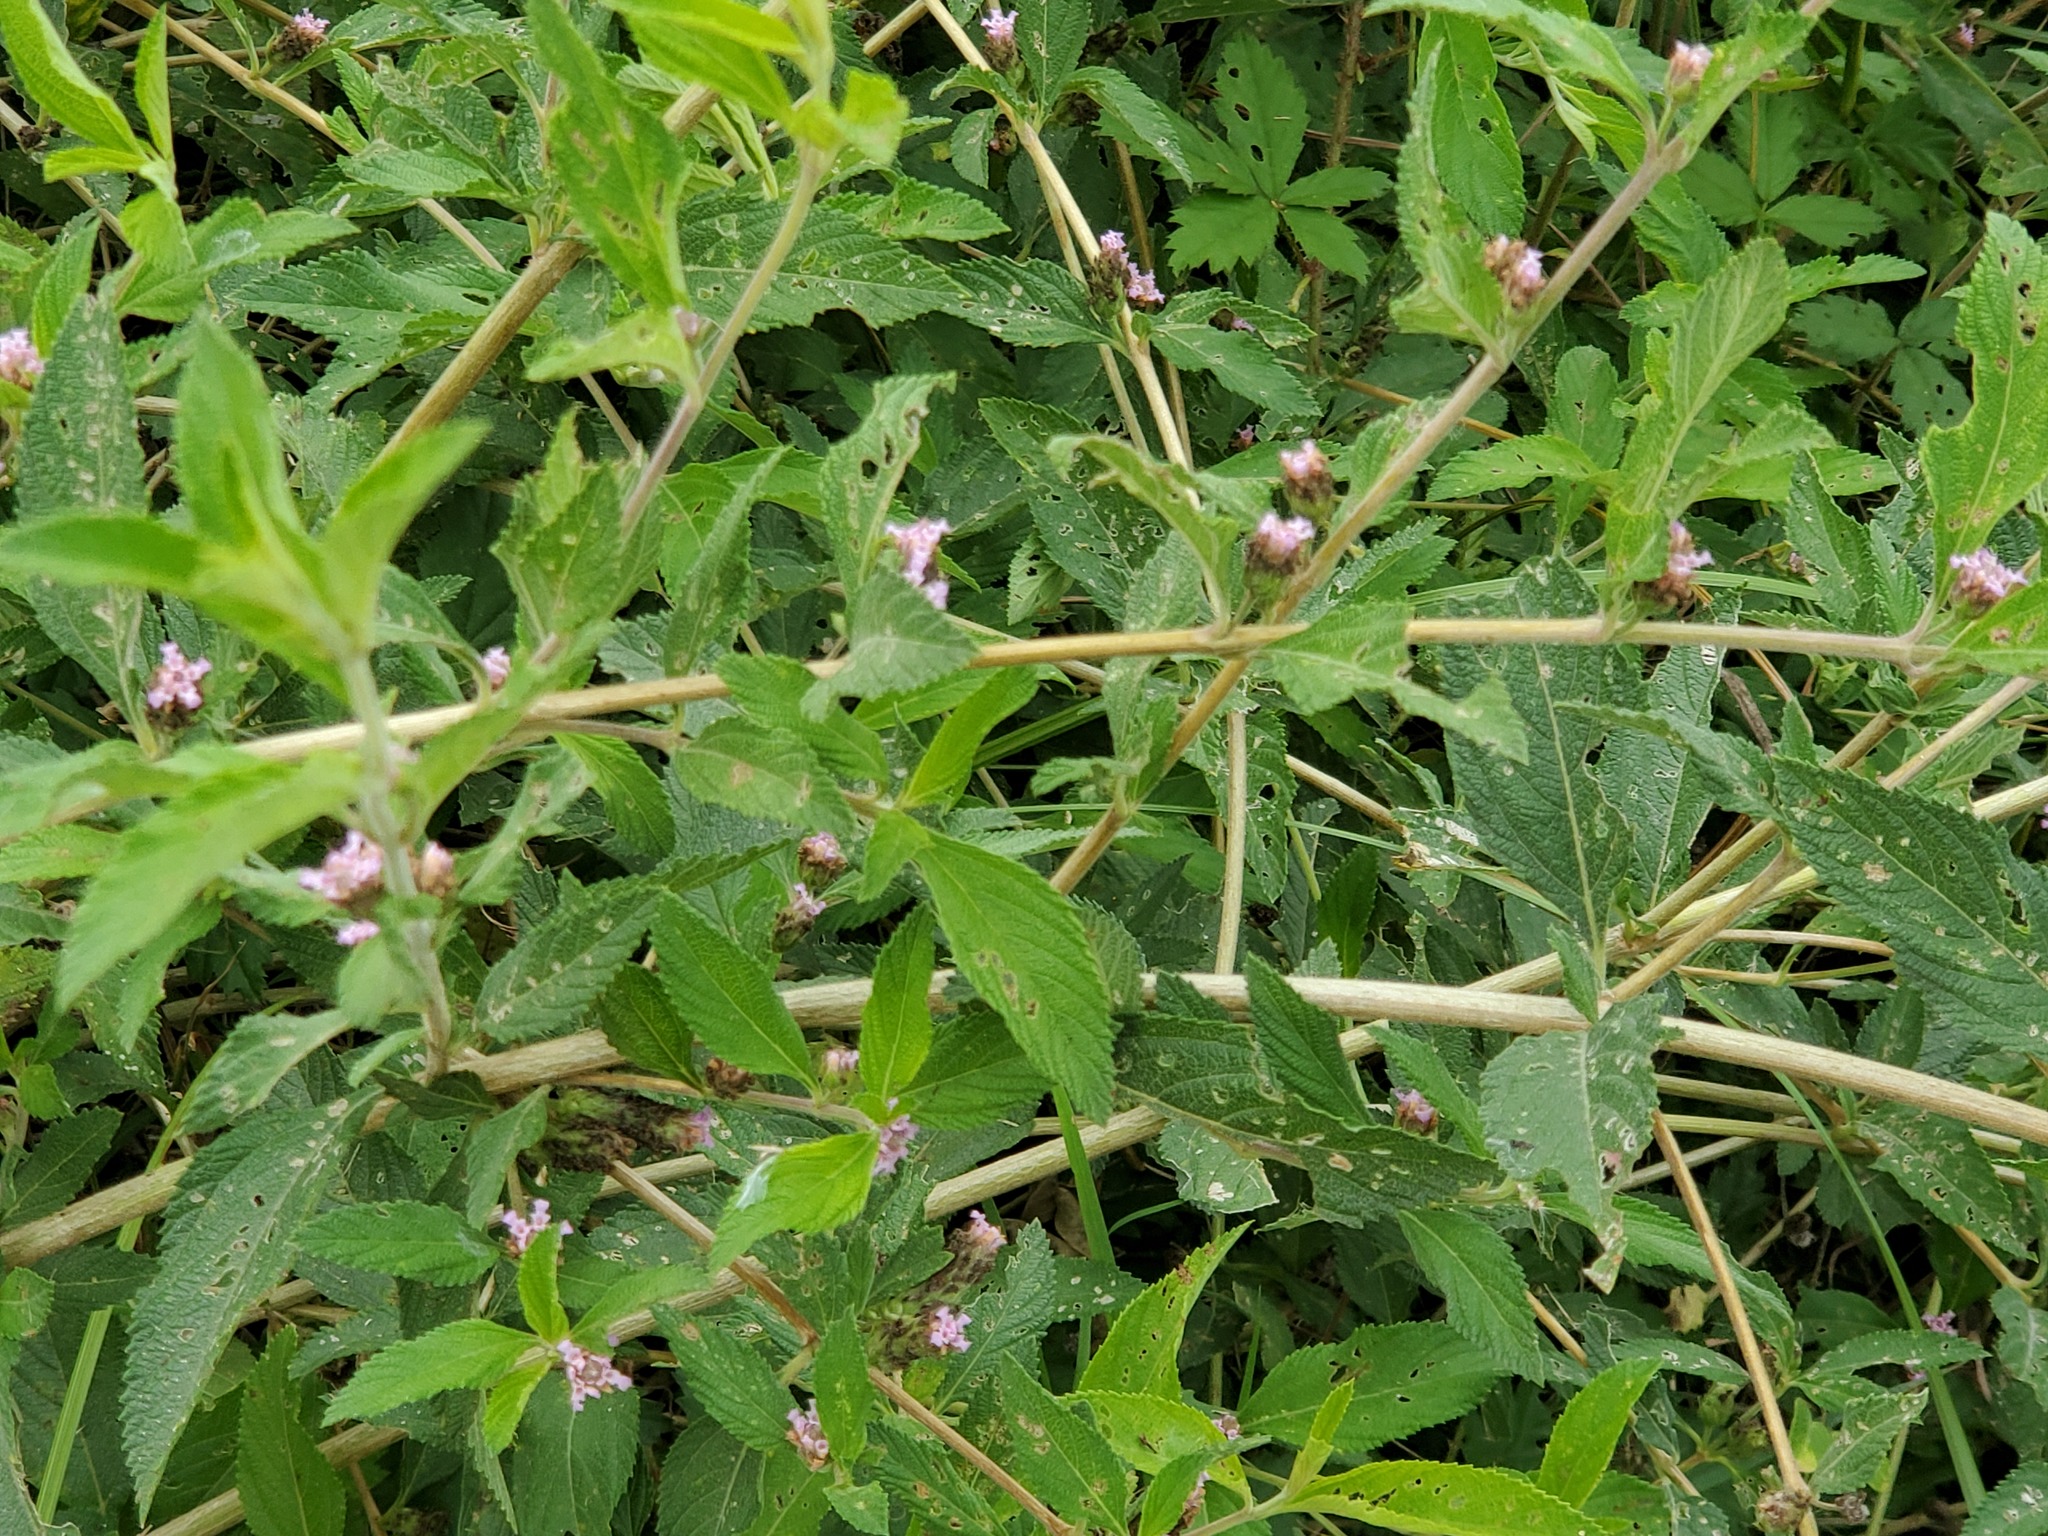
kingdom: Plantae
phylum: Tracheophyta
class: Magnoliopsida
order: Lamiales
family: Verbenaceae
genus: Lippia
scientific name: Lippia alba
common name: Bushy matgrass
